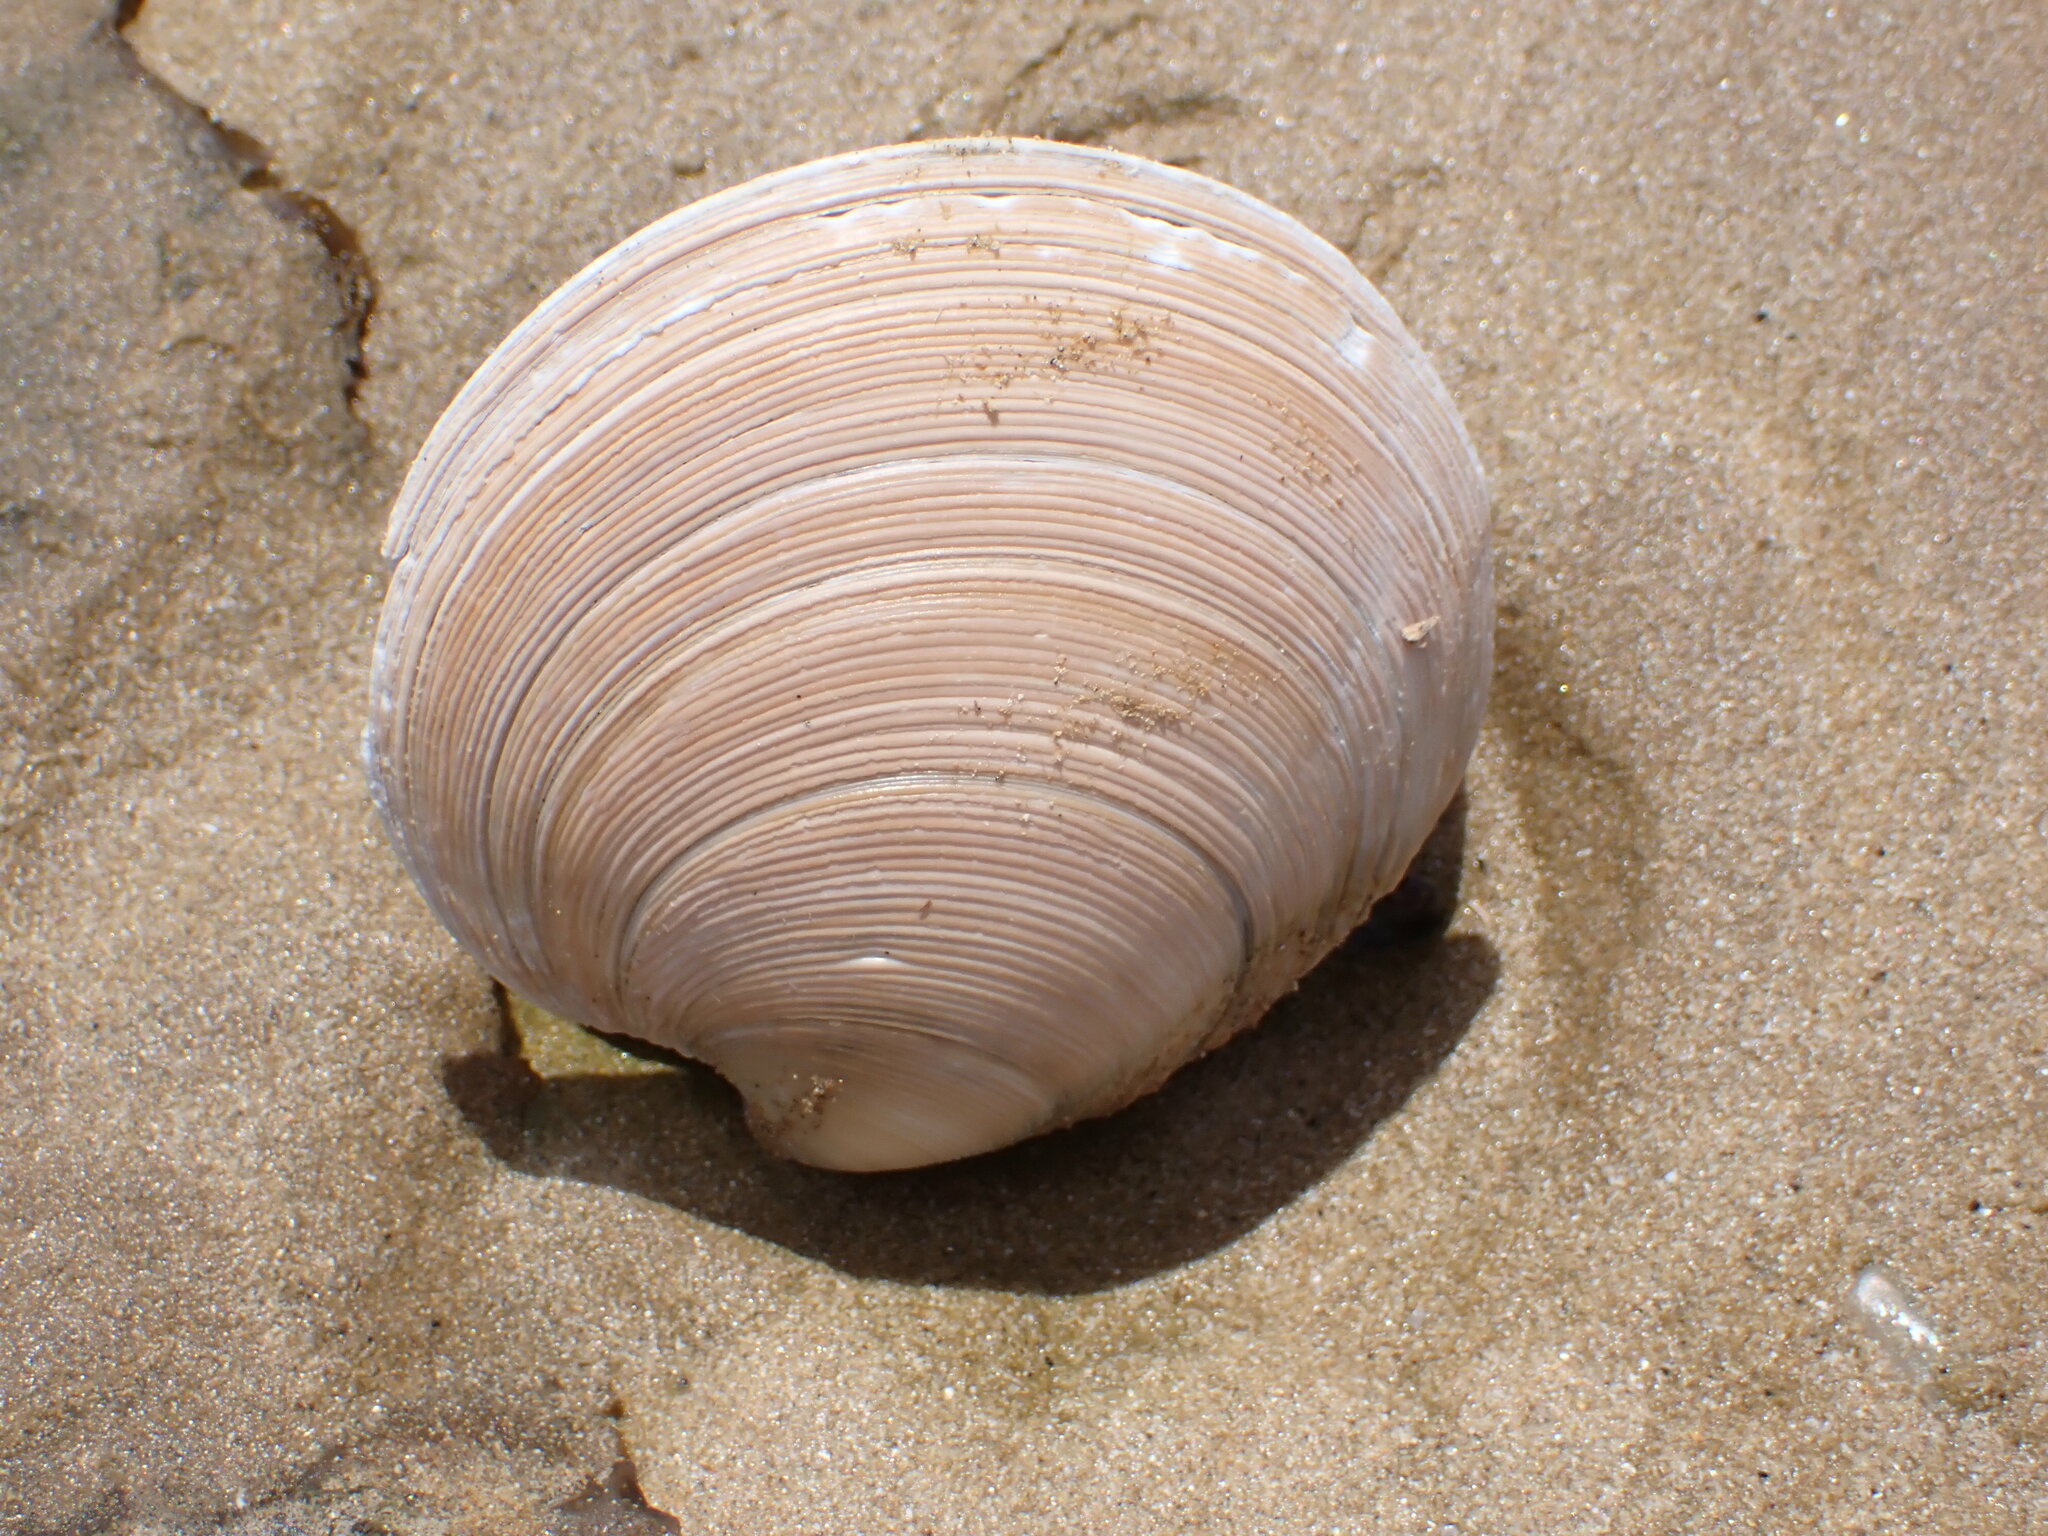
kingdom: Animalia
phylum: Mollusca
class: Bivalvia
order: Venerida
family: Veneridae
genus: Dosinia
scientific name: Dosinia anus
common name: Old-woman dosinia
